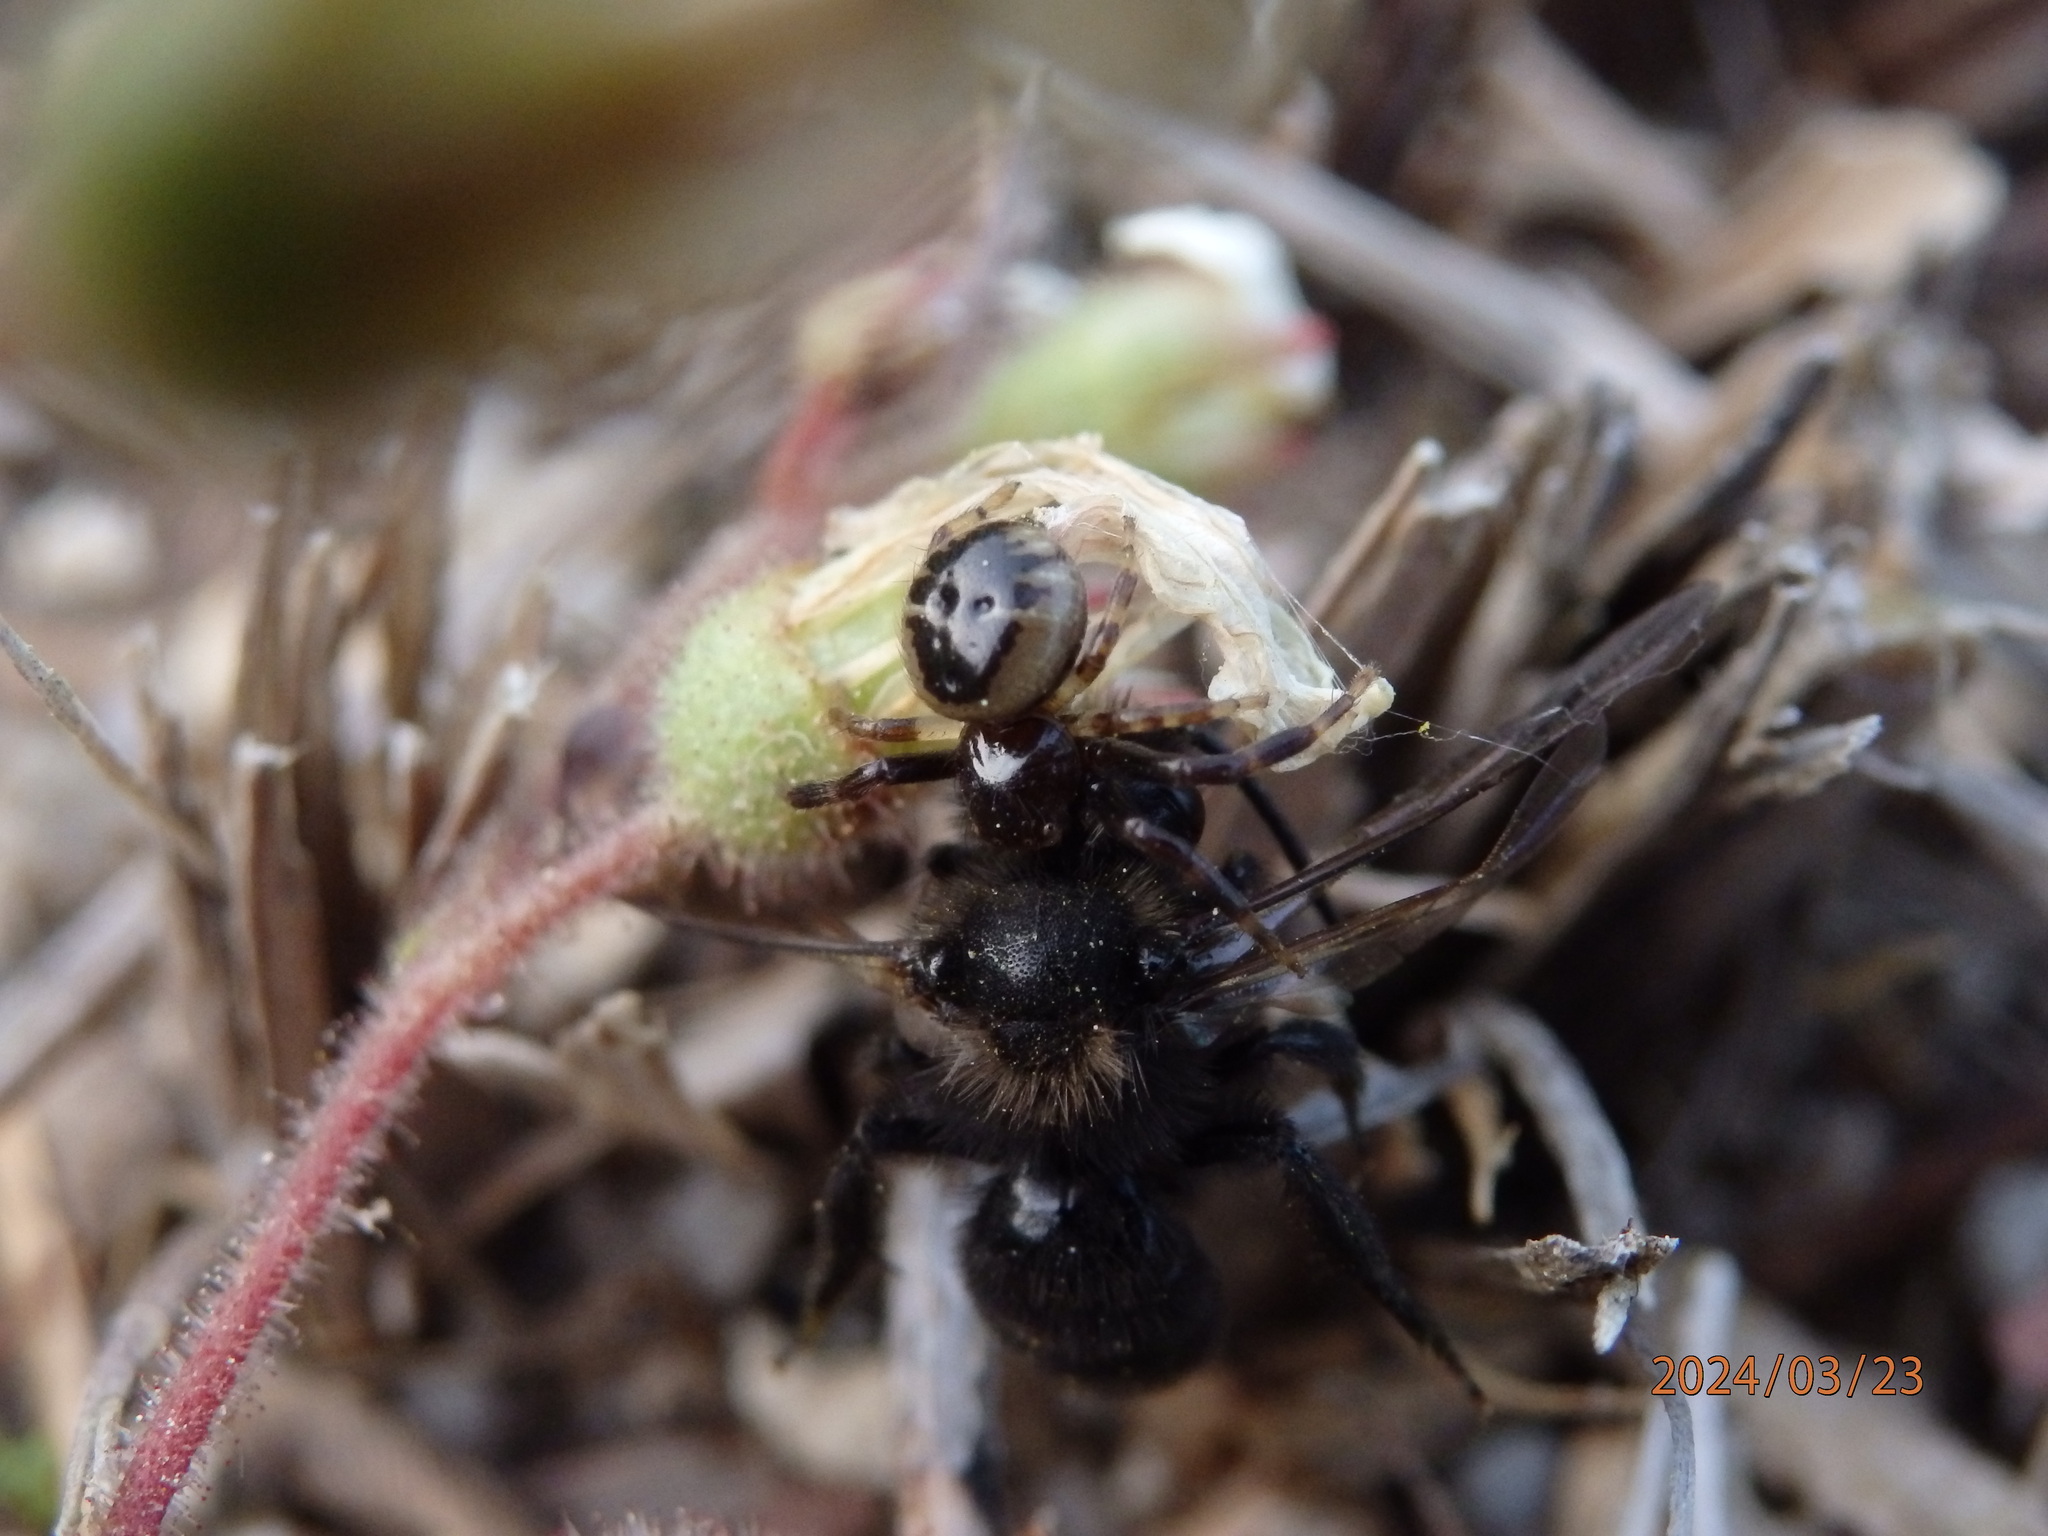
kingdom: Animalia
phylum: Arthropoda
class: Arachnida
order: Araneae
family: Thomisidae
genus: Synema
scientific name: Synema globosum
